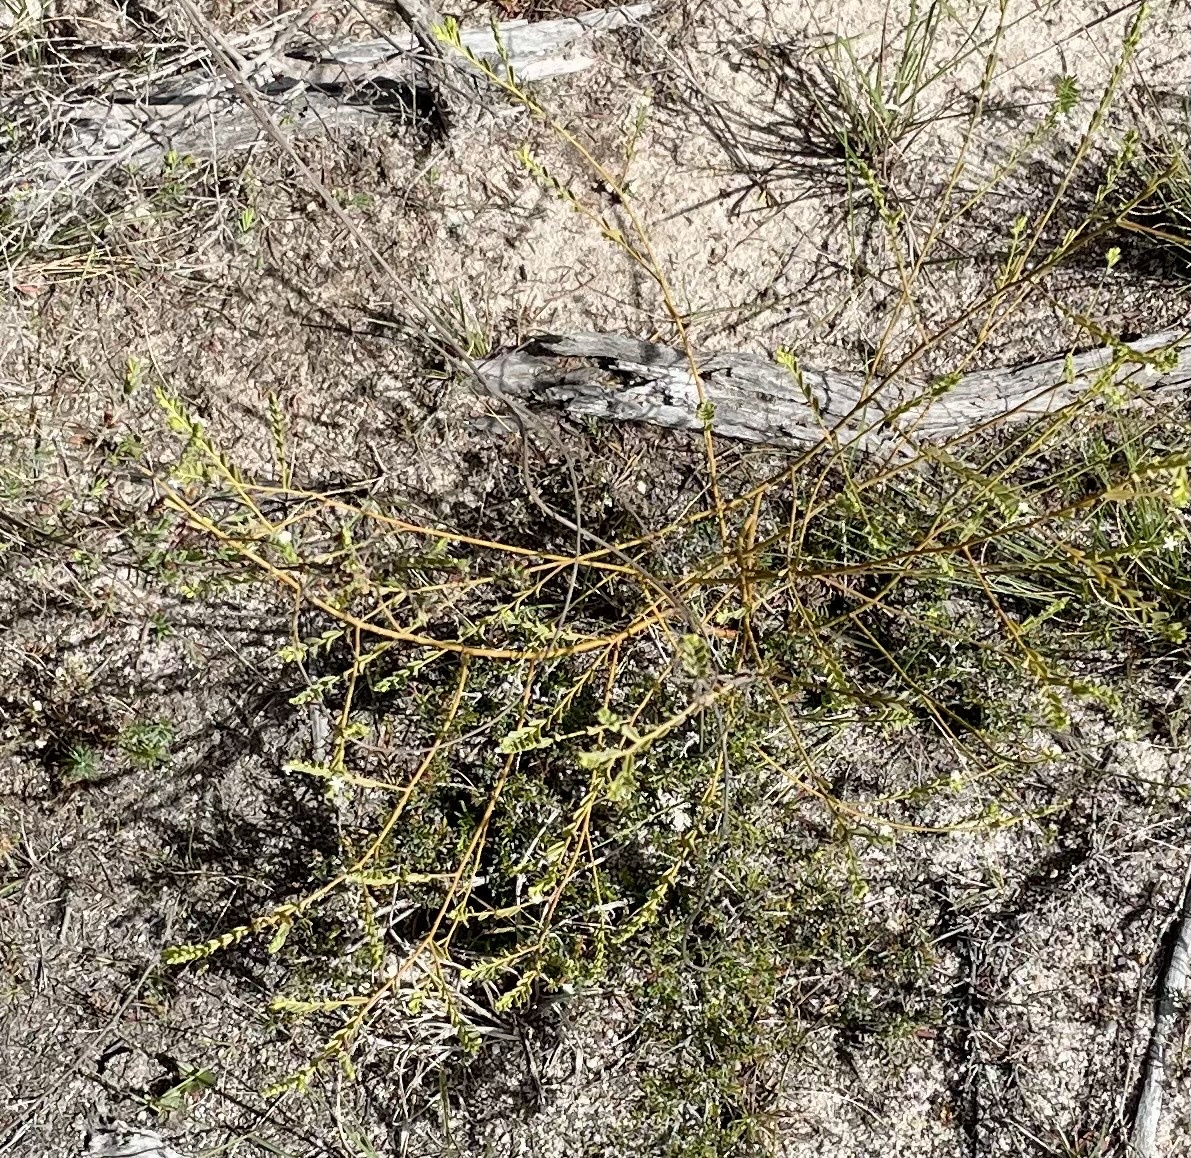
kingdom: Plantae
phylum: Tracheophyta
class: Magnoliopsida
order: Santalales
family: Olacaceae
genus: Olax
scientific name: Olax retusa
